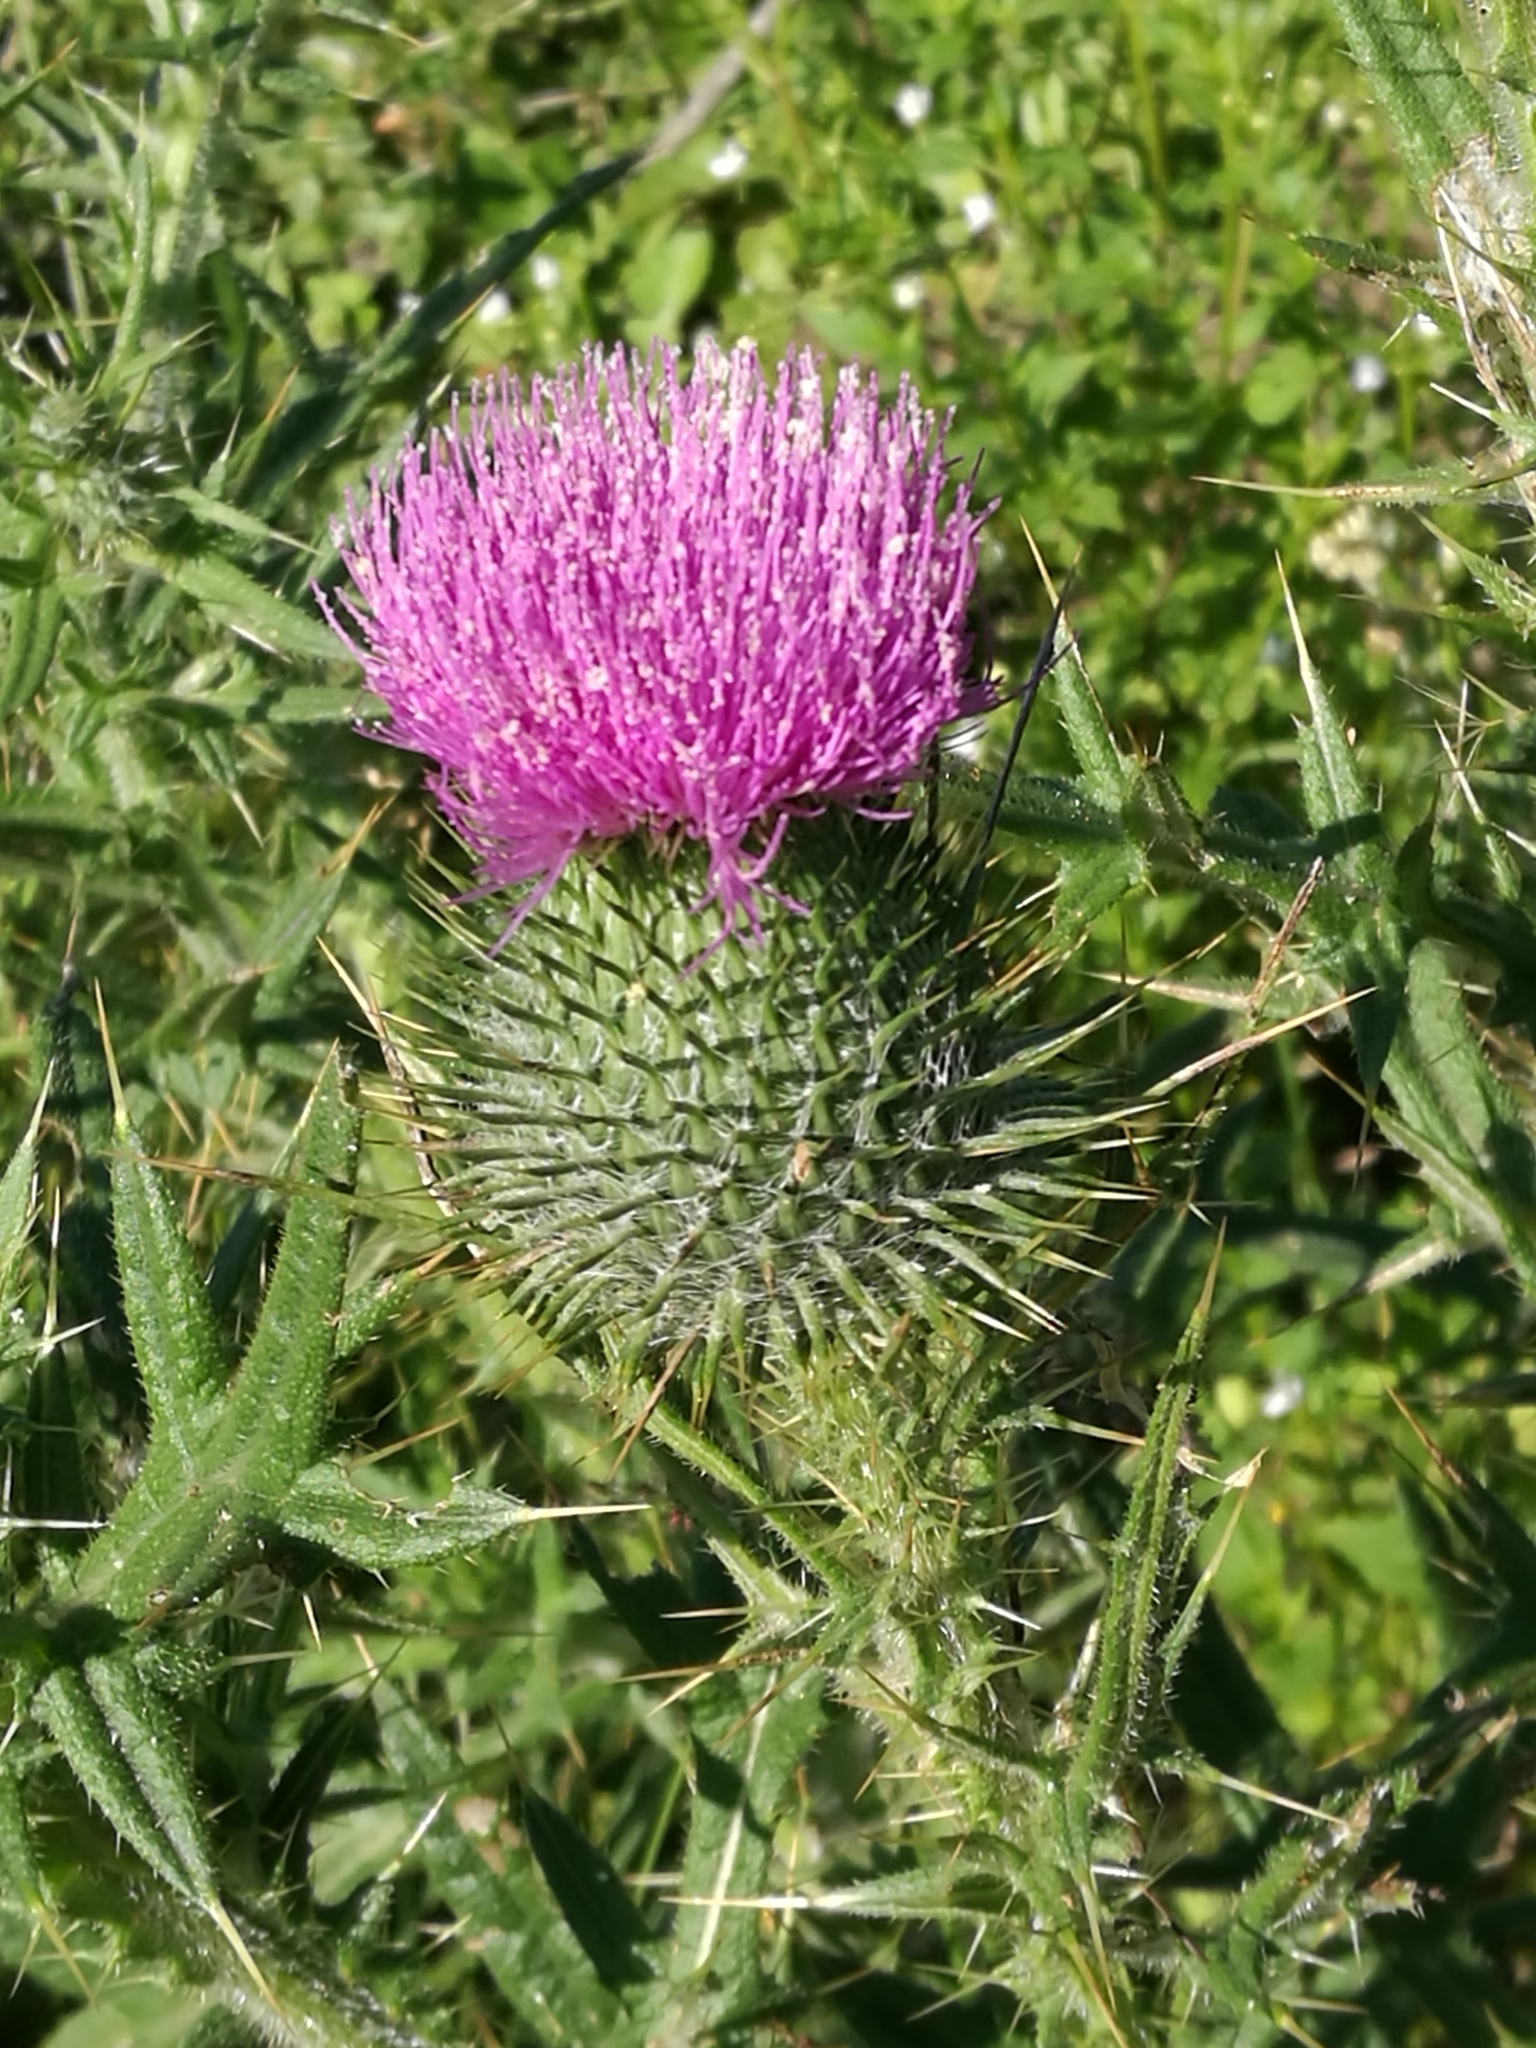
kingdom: Plantae
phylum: Tracheophyta
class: Magnoliopsida
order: Asterales
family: Asteraceae
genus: Cirsium
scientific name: Cirsium vulgare
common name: Bull thistle
